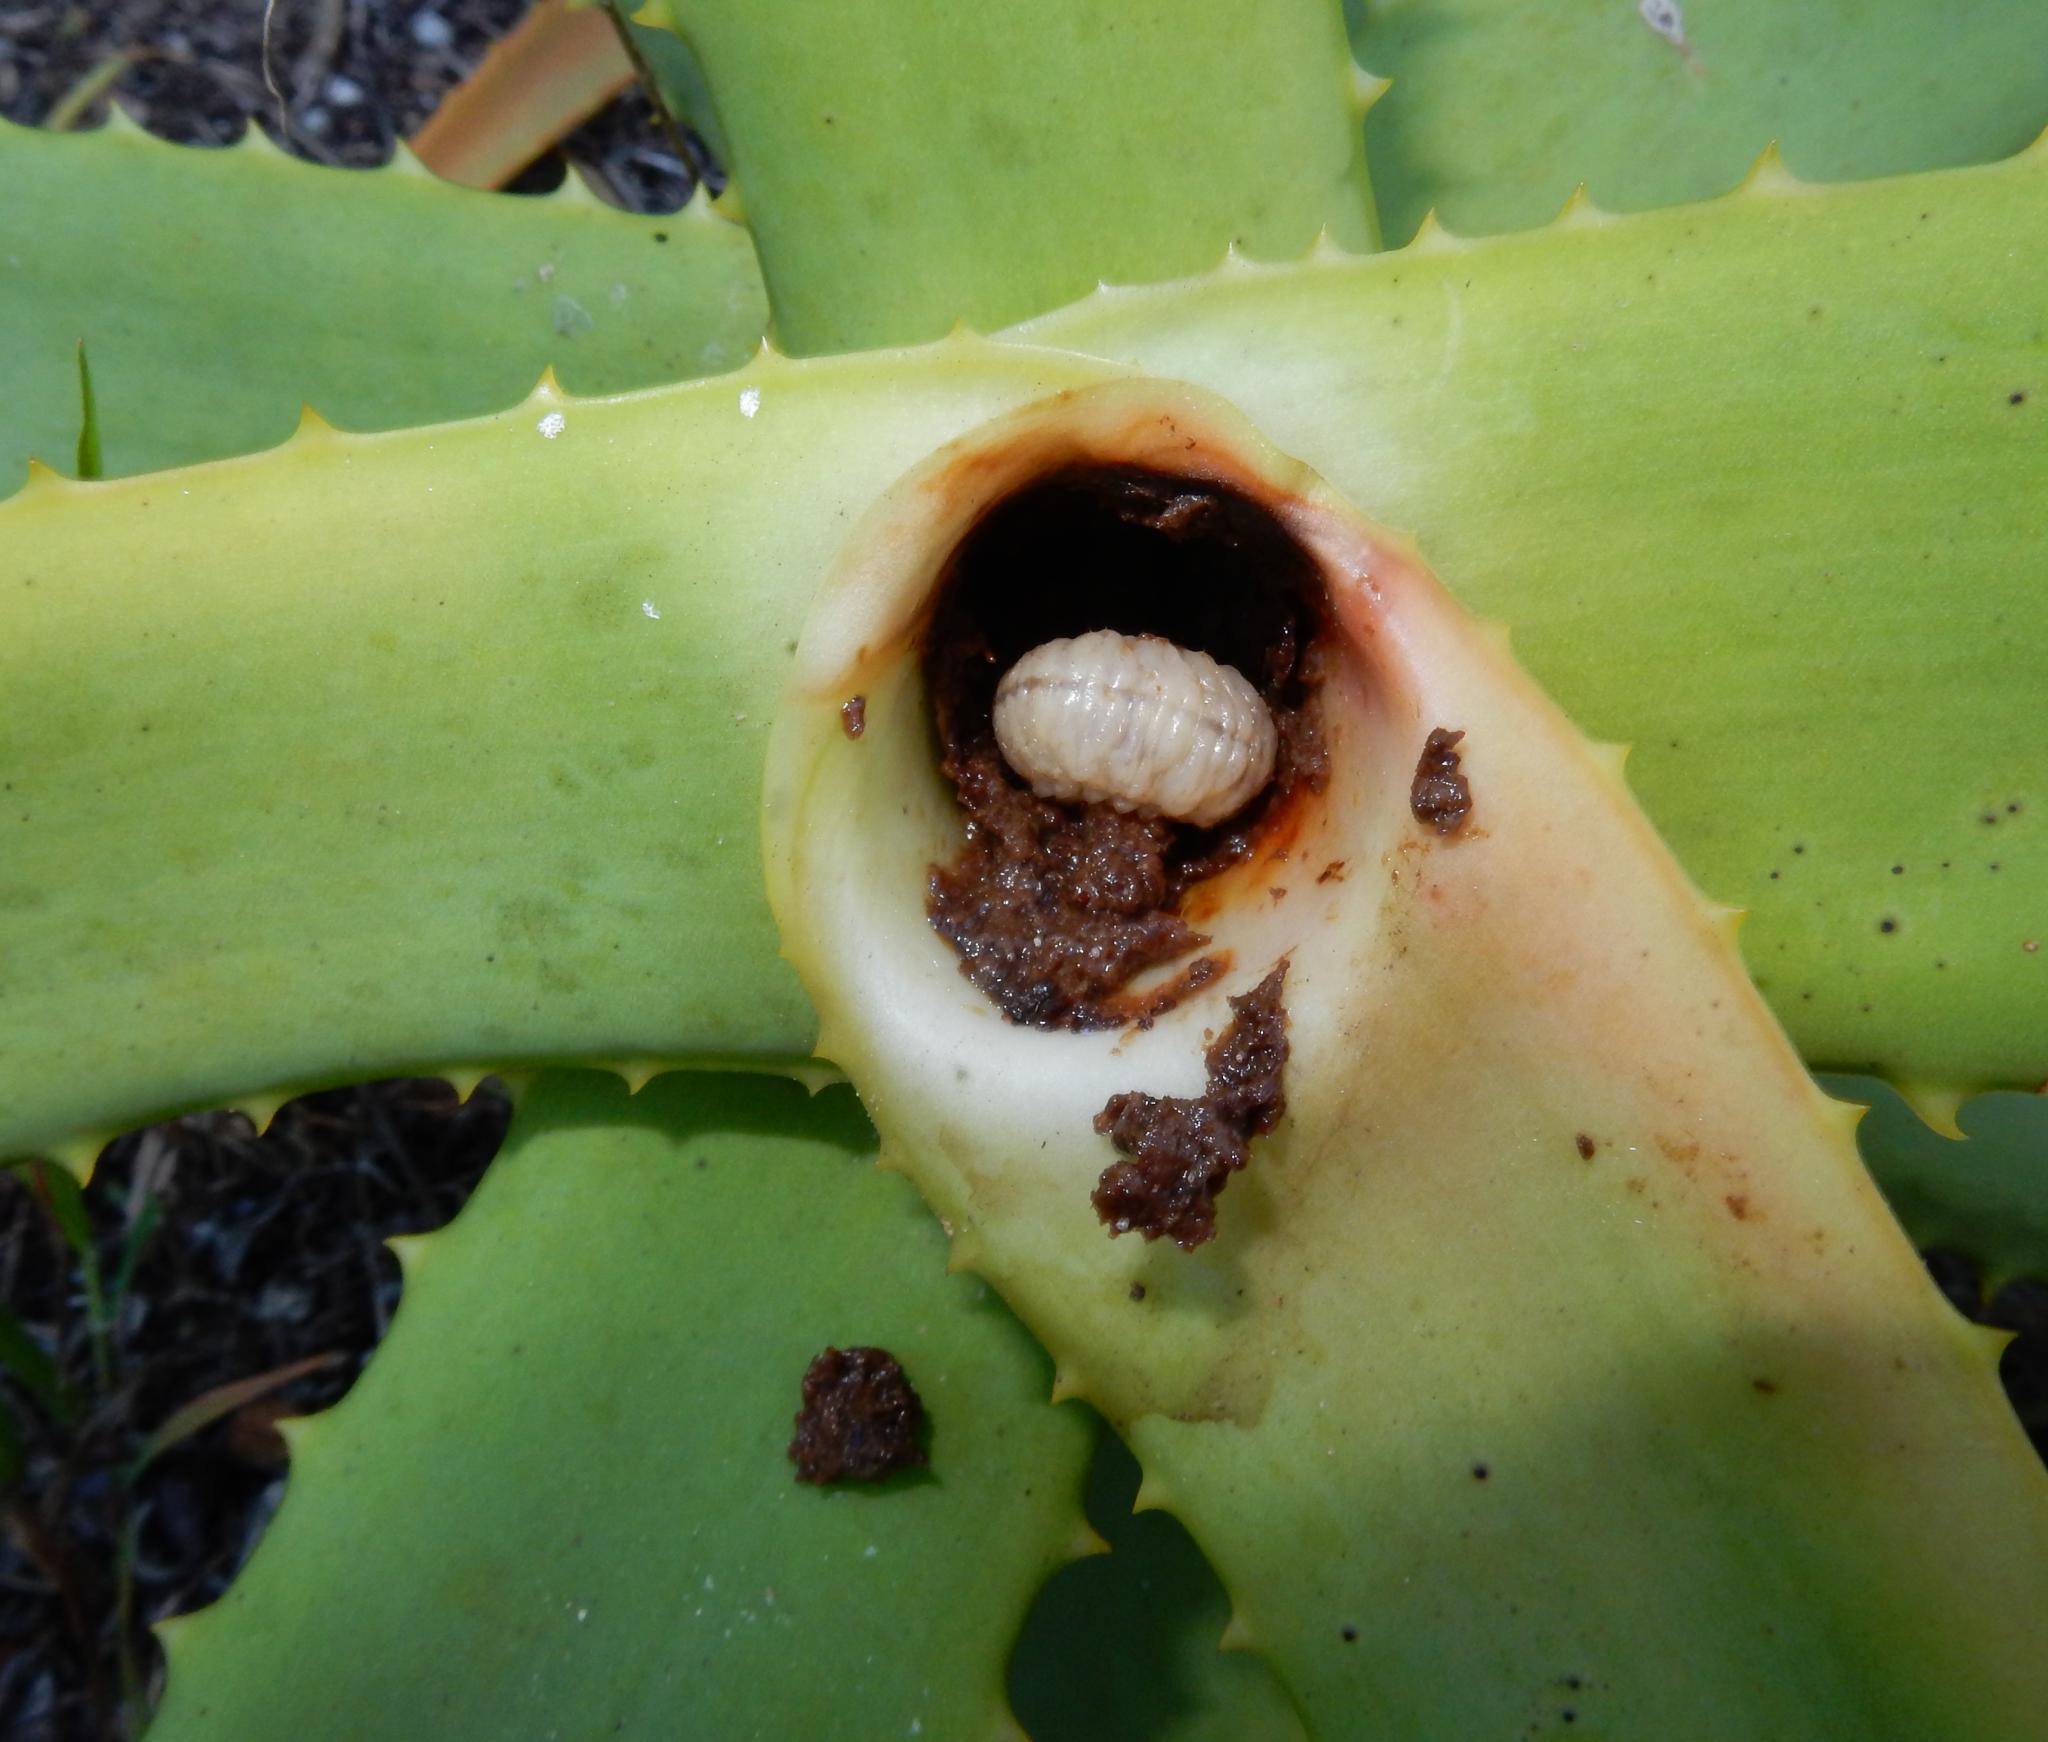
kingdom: Animalia
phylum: Arthropoda
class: Insecta
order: Coleoptera
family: Curculionidae
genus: Rhadinomerus
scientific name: Rhadinomerus
